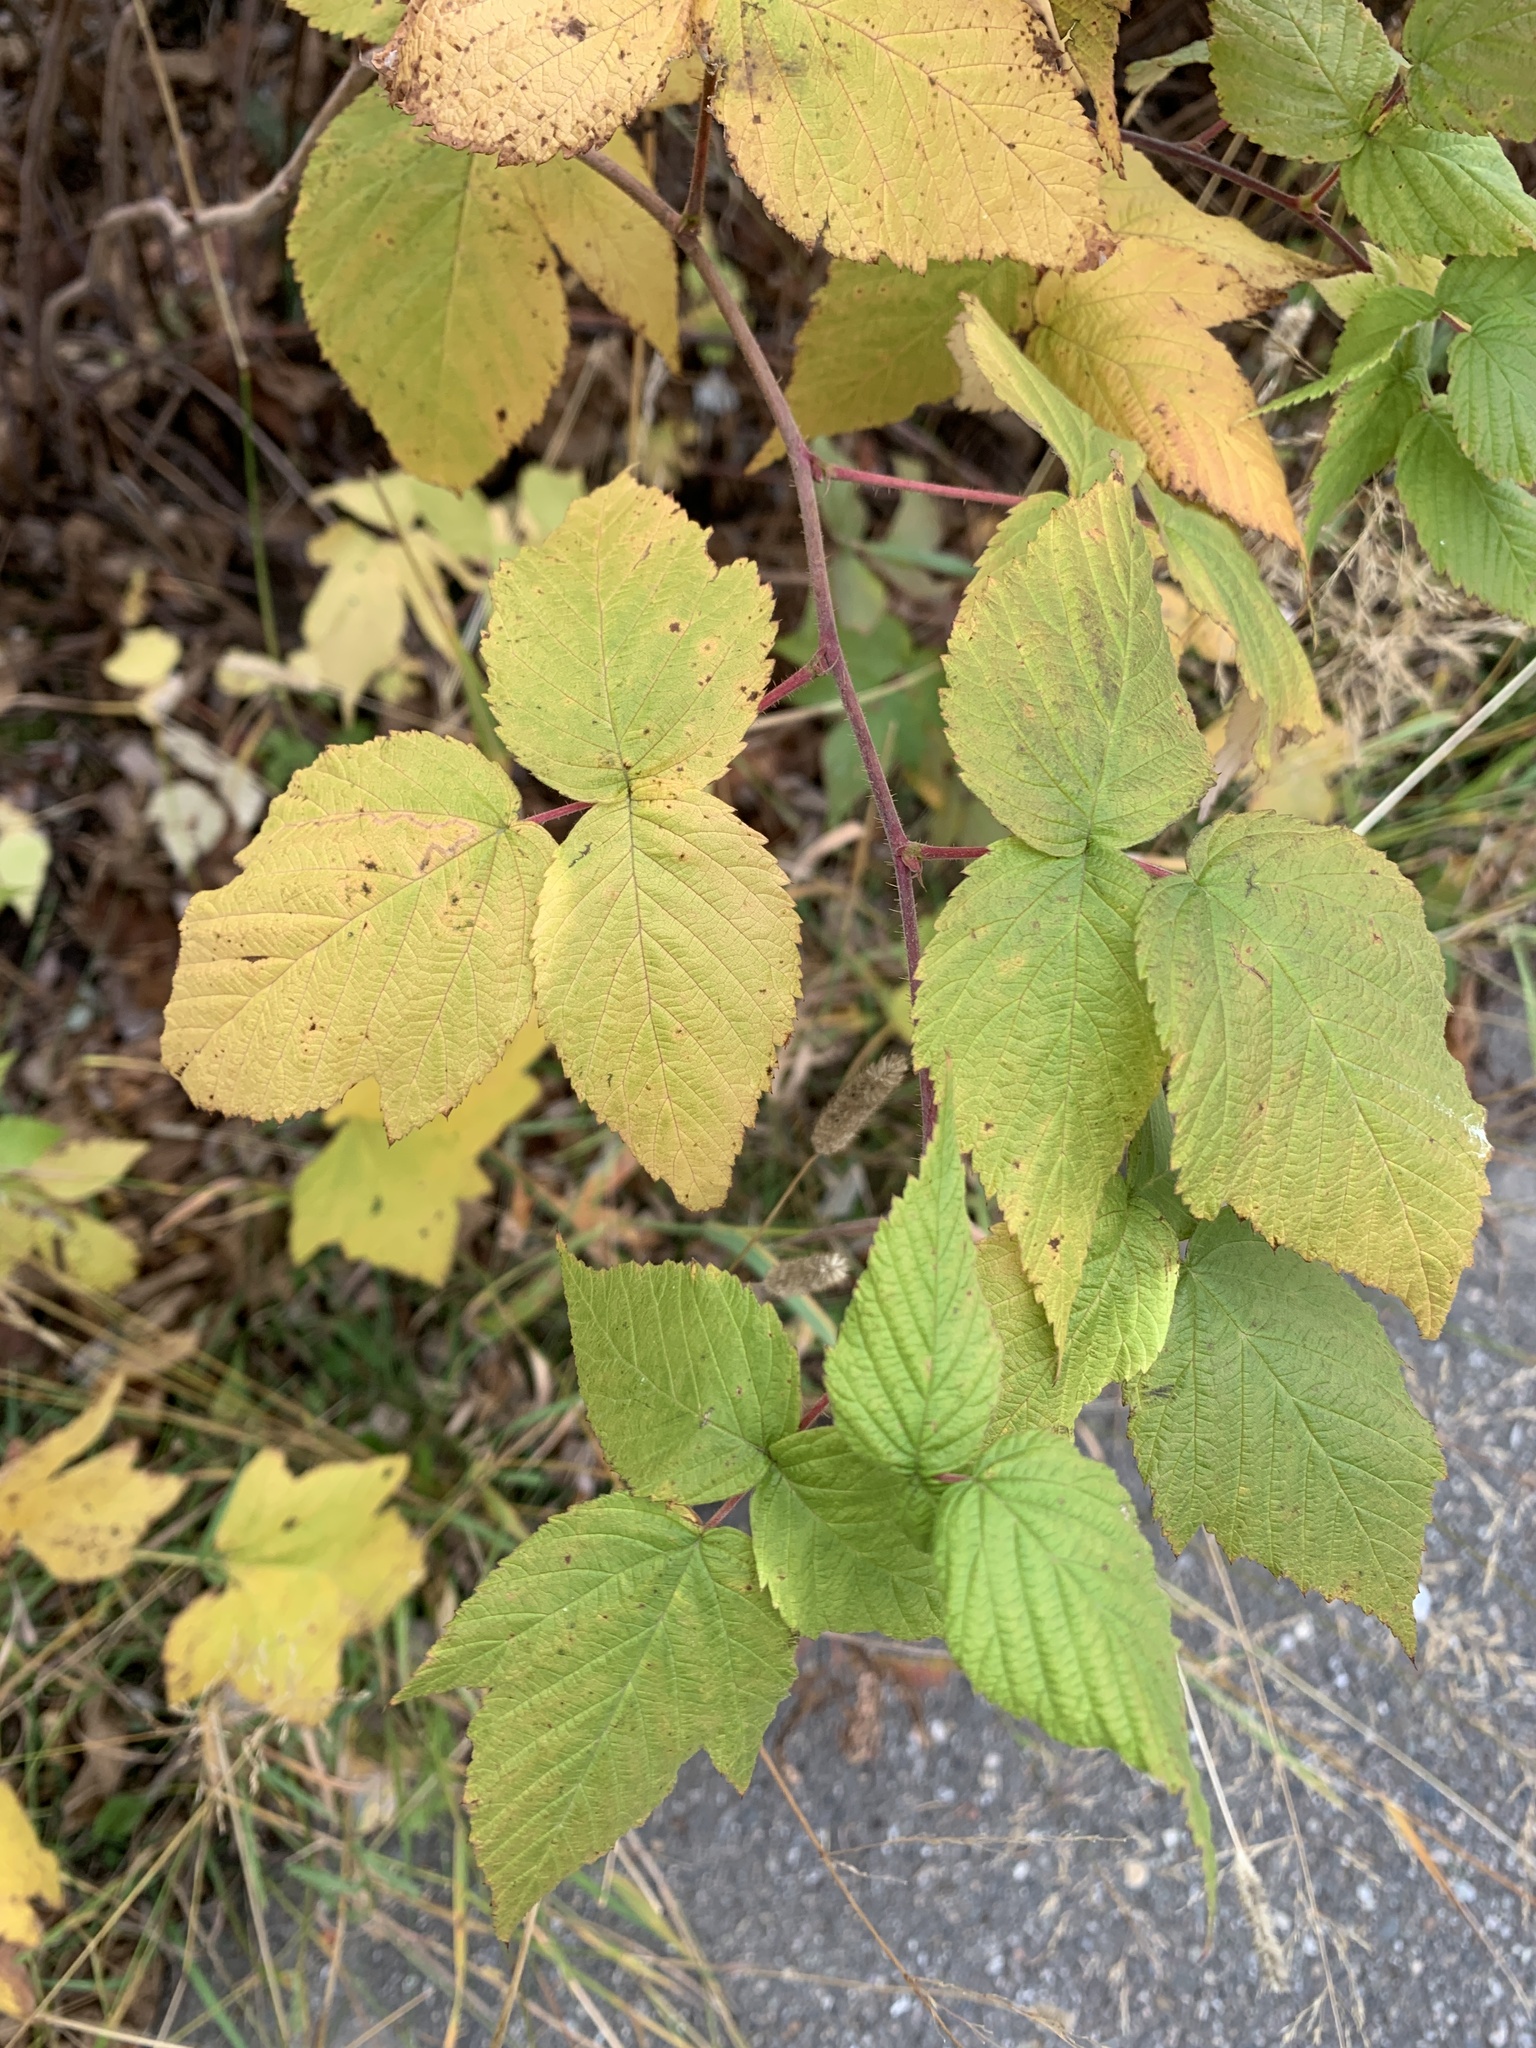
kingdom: Plantae
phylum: Tracheophyta
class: Magnoliopsida
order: Rosales
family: Rosaceae
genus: Rubus
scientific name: Rubus idaeus
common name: Raspberry
